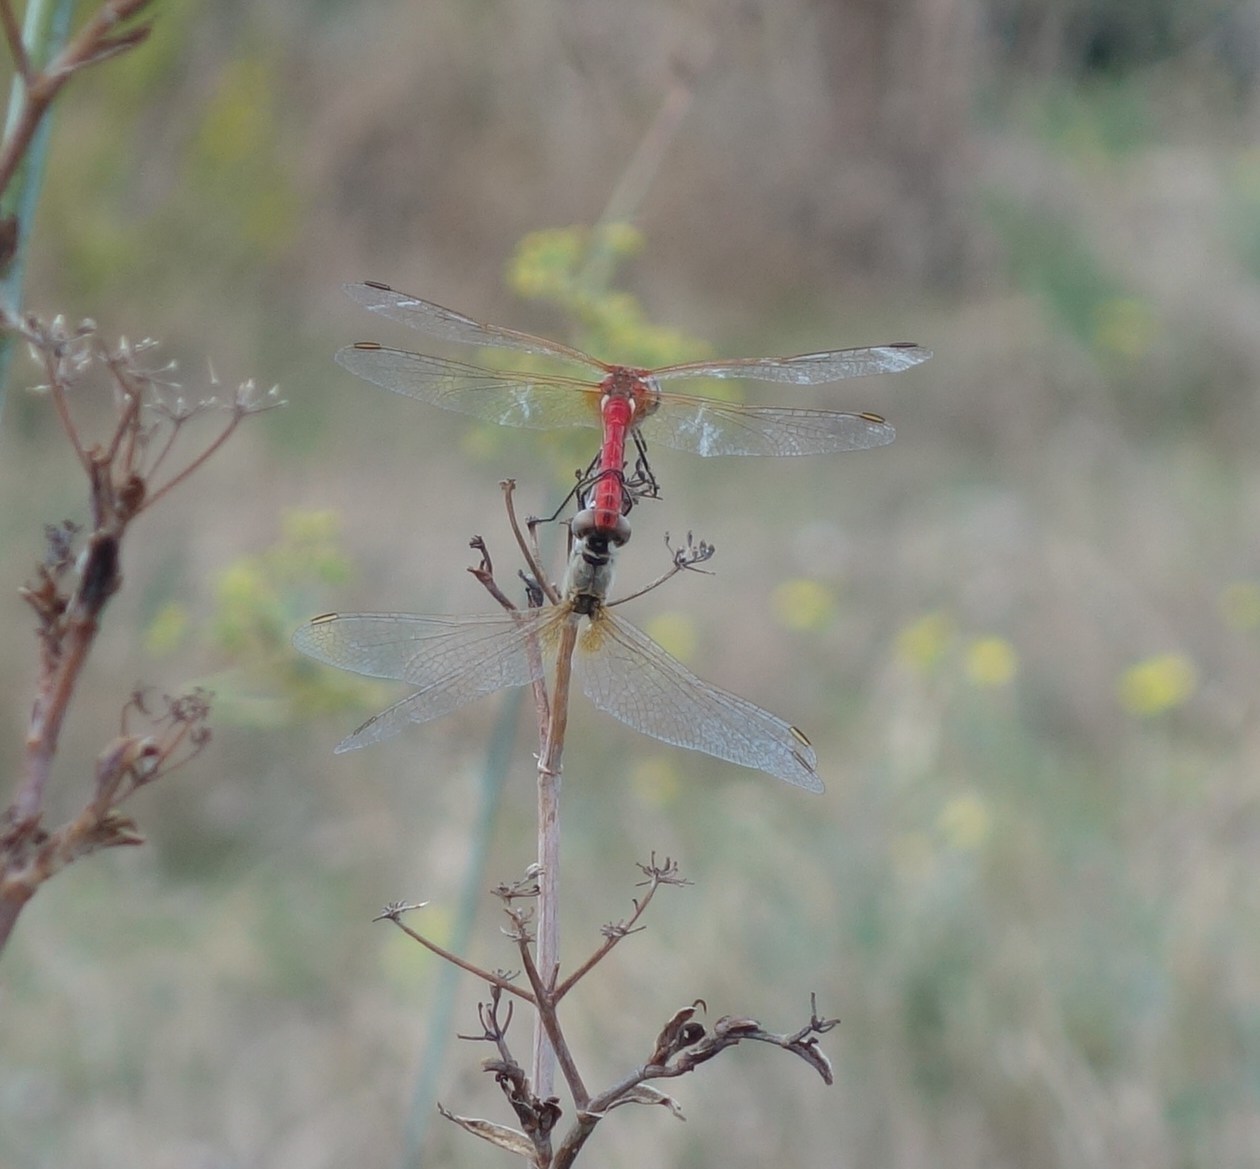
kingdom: Animalia
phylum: Arthropoda
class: Insecta
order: Odonata
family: Libellulidae
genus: Sympetrum
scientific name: Sympetrum fonscolombii
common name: Red-veined darter
